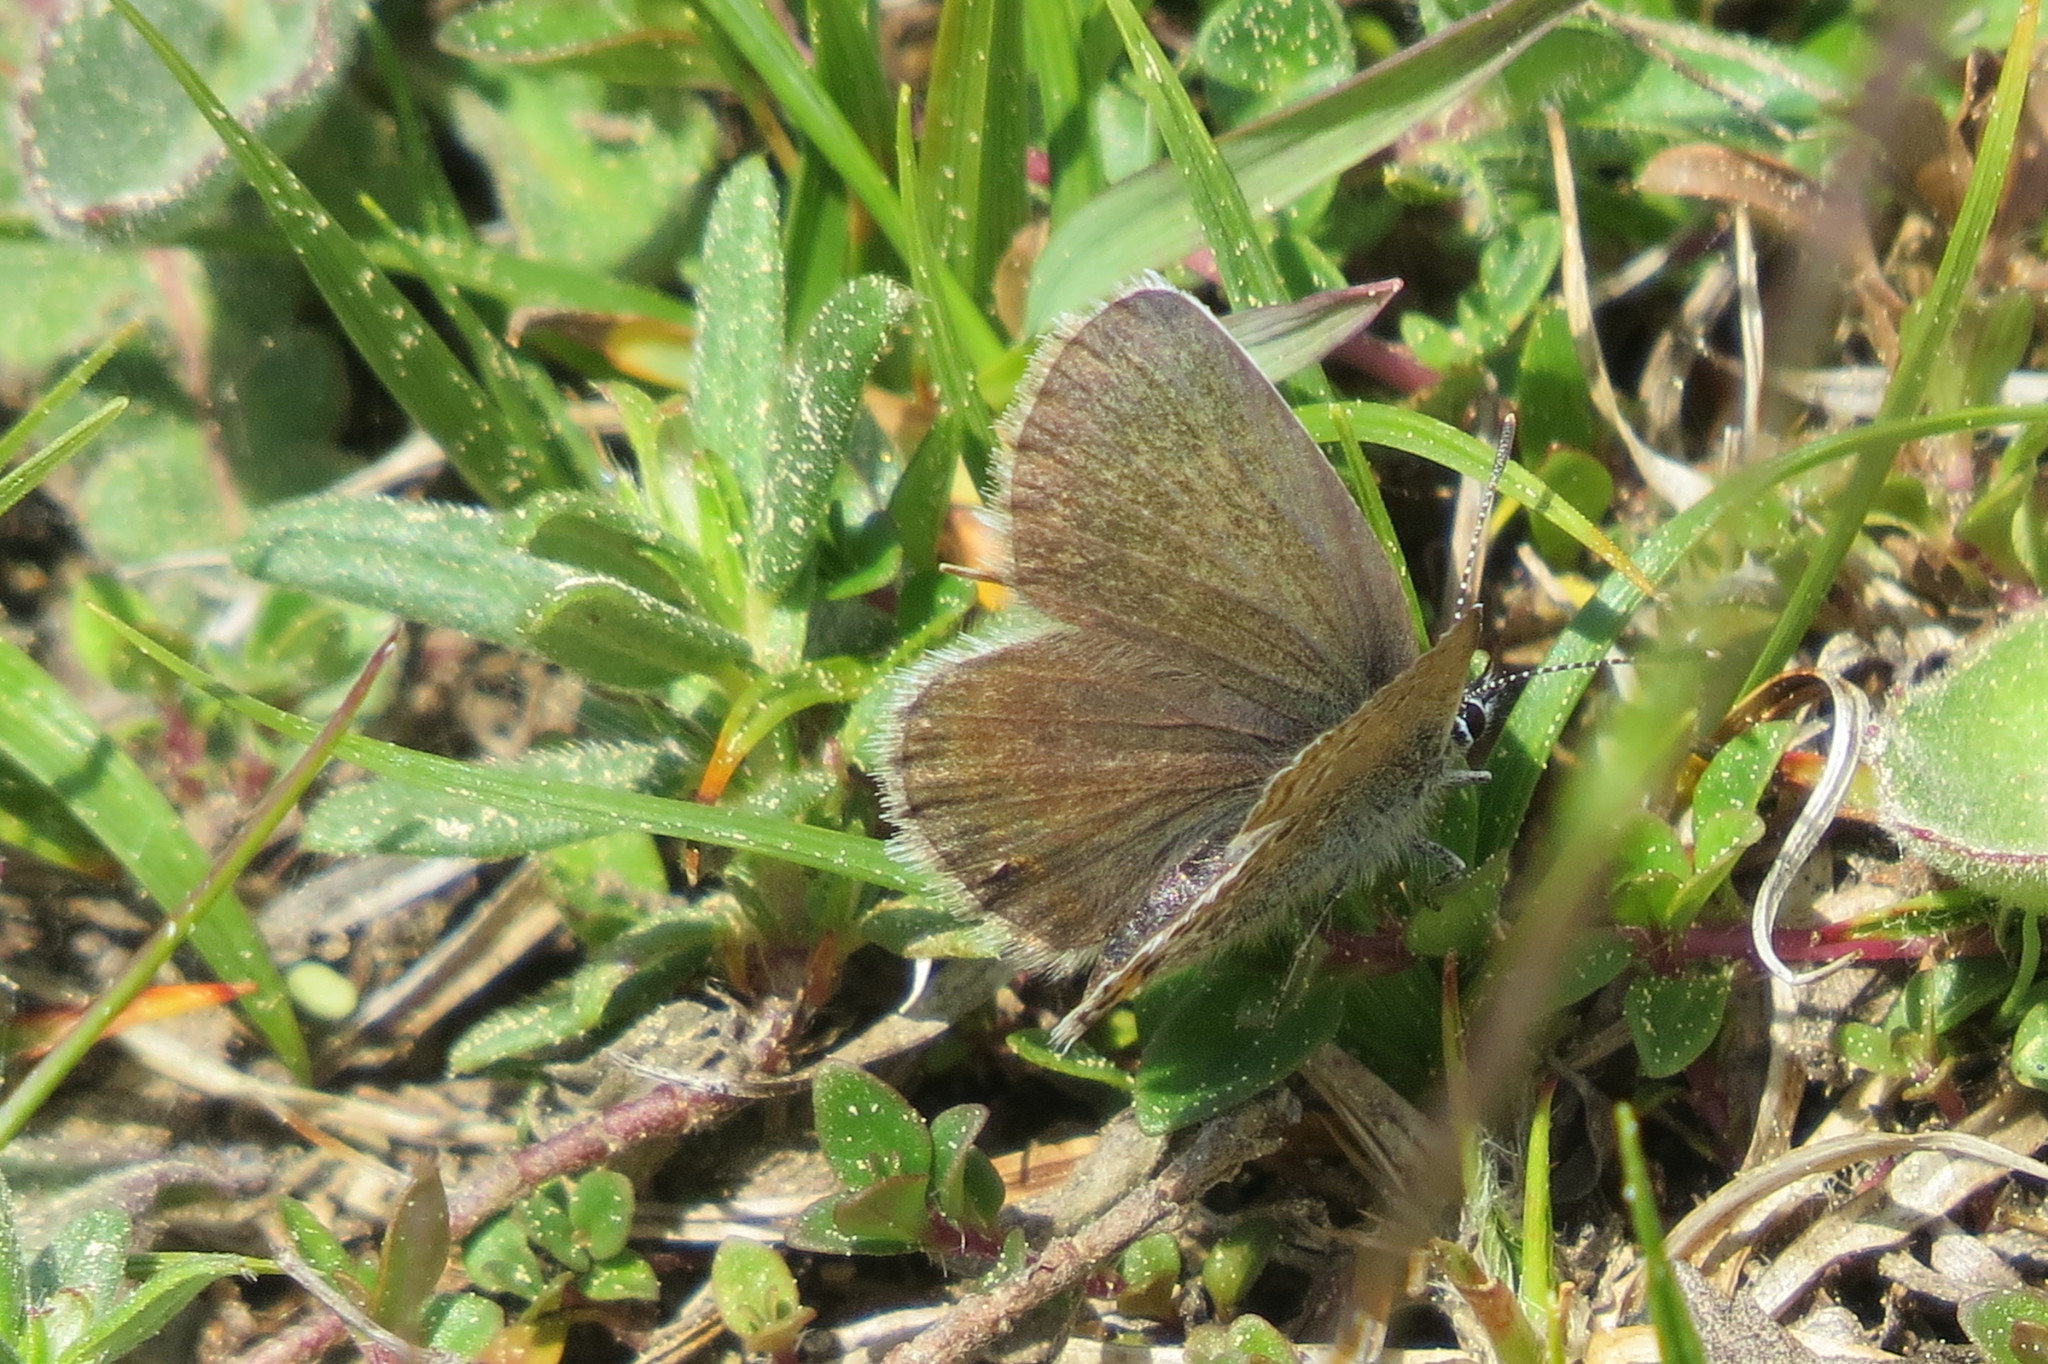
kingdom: Animalia
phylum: Arthropoda
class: Insecta
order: Lepidoptera
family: Lycaenidae
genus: Plebejus
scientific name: Plebejus argus
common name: Silver-studded blue
